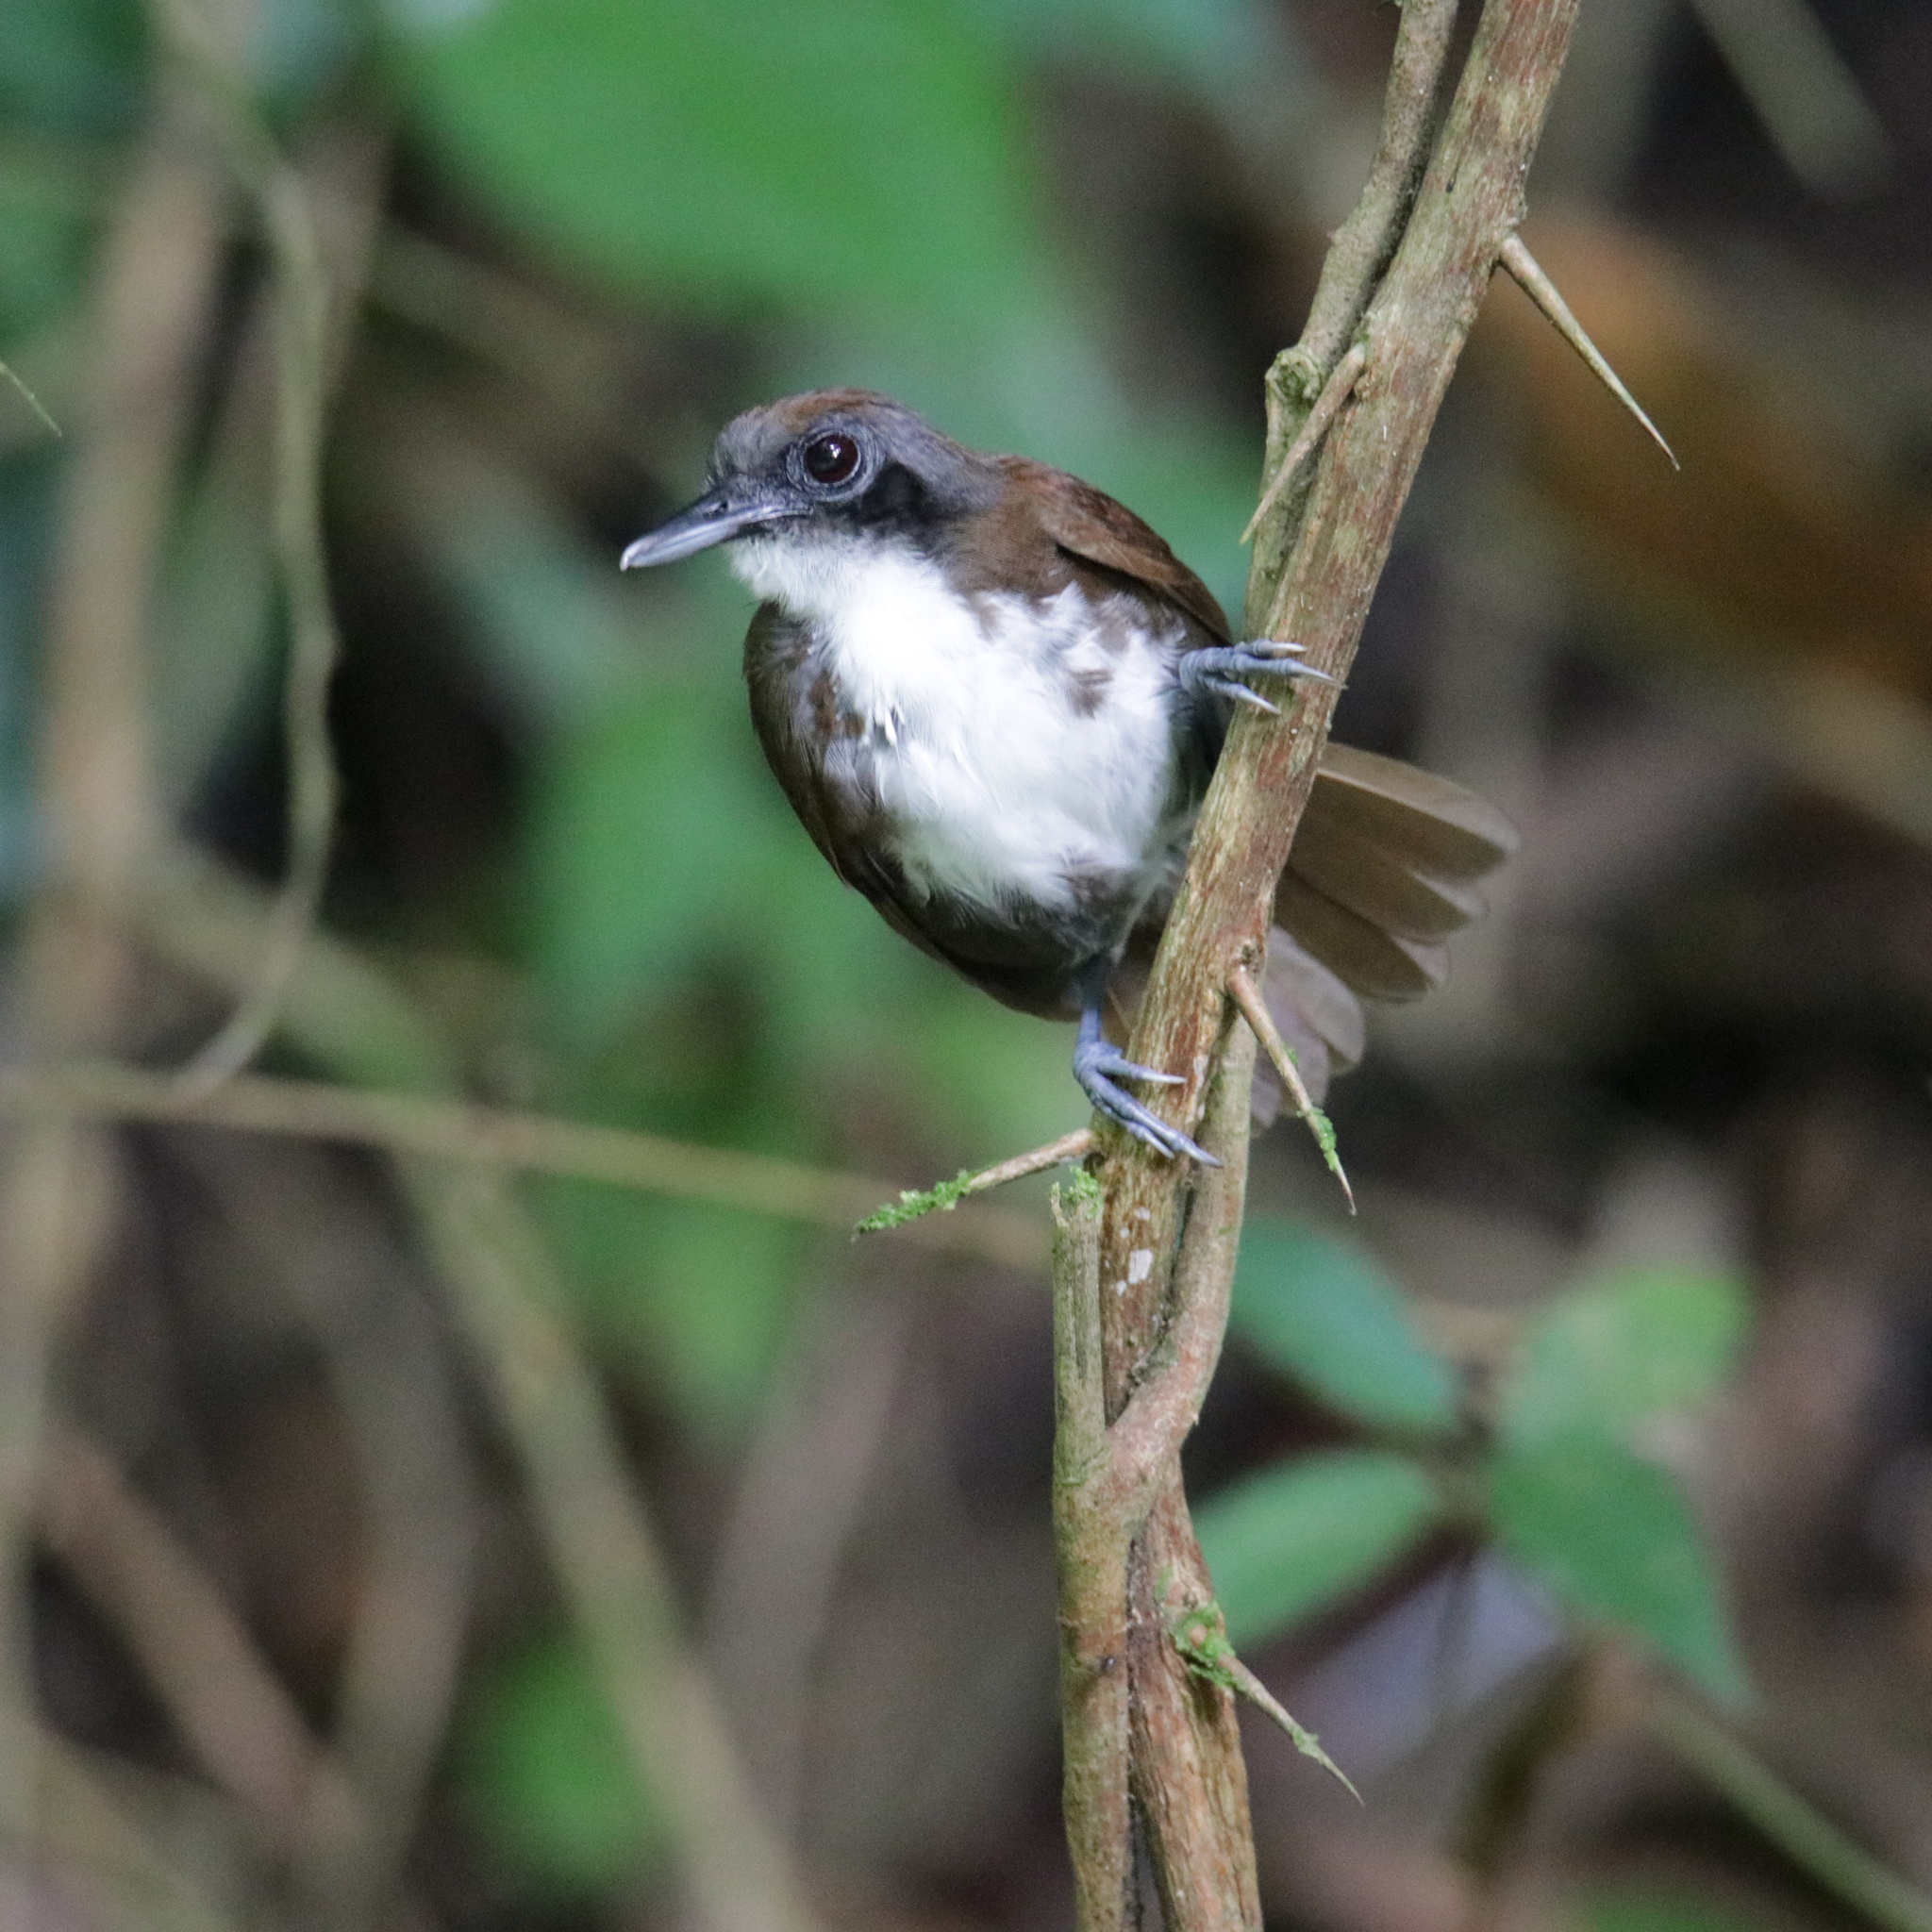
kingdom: Animalia
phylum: Chordata
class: Aves
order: Passeriformes
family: Thamnophilidae
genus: Gymnopithys
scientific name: Gymnopithys leucaspis
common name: White-cheeked antbird
